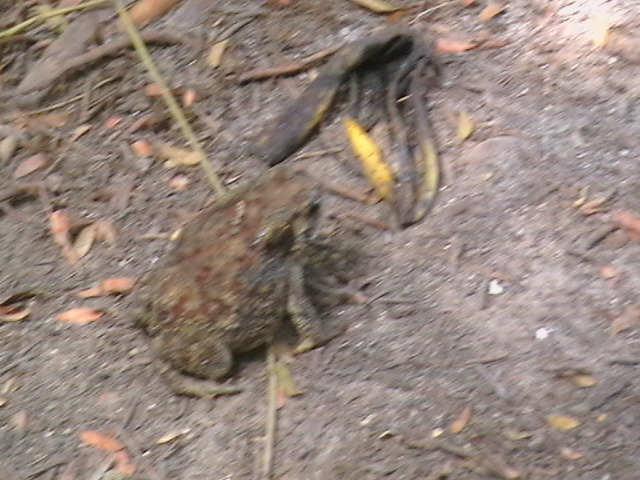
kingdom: Animalia
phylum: Chordata
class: Amphibia
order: Anura
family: Bufonidae
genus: Duttaphrynus
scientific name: Duttaphrynus melanostictus
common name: Common sunda toad
